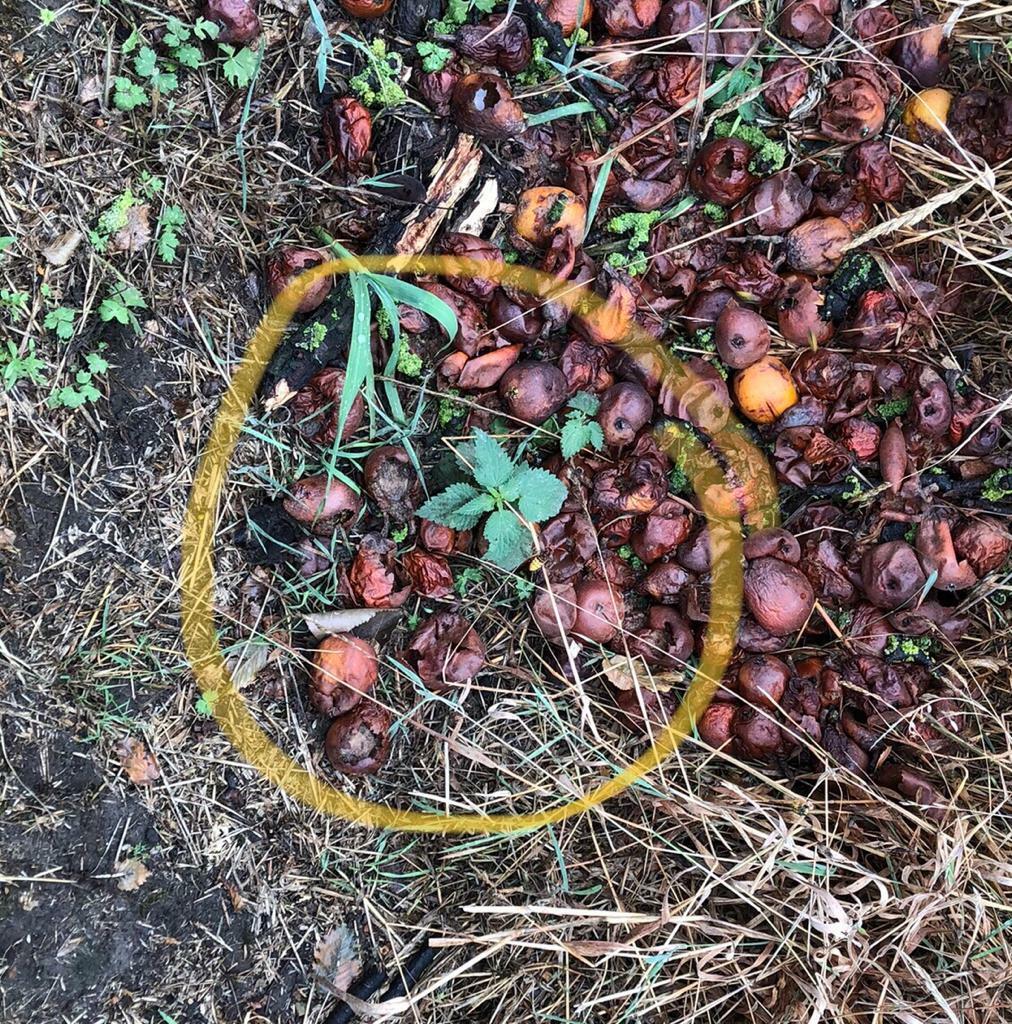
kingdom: Animalia
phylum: Arthropoda
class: Insecta
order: Hymenoptera
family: Vespidae
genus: Vespa
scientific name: Vespa crabro
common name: Hornet
